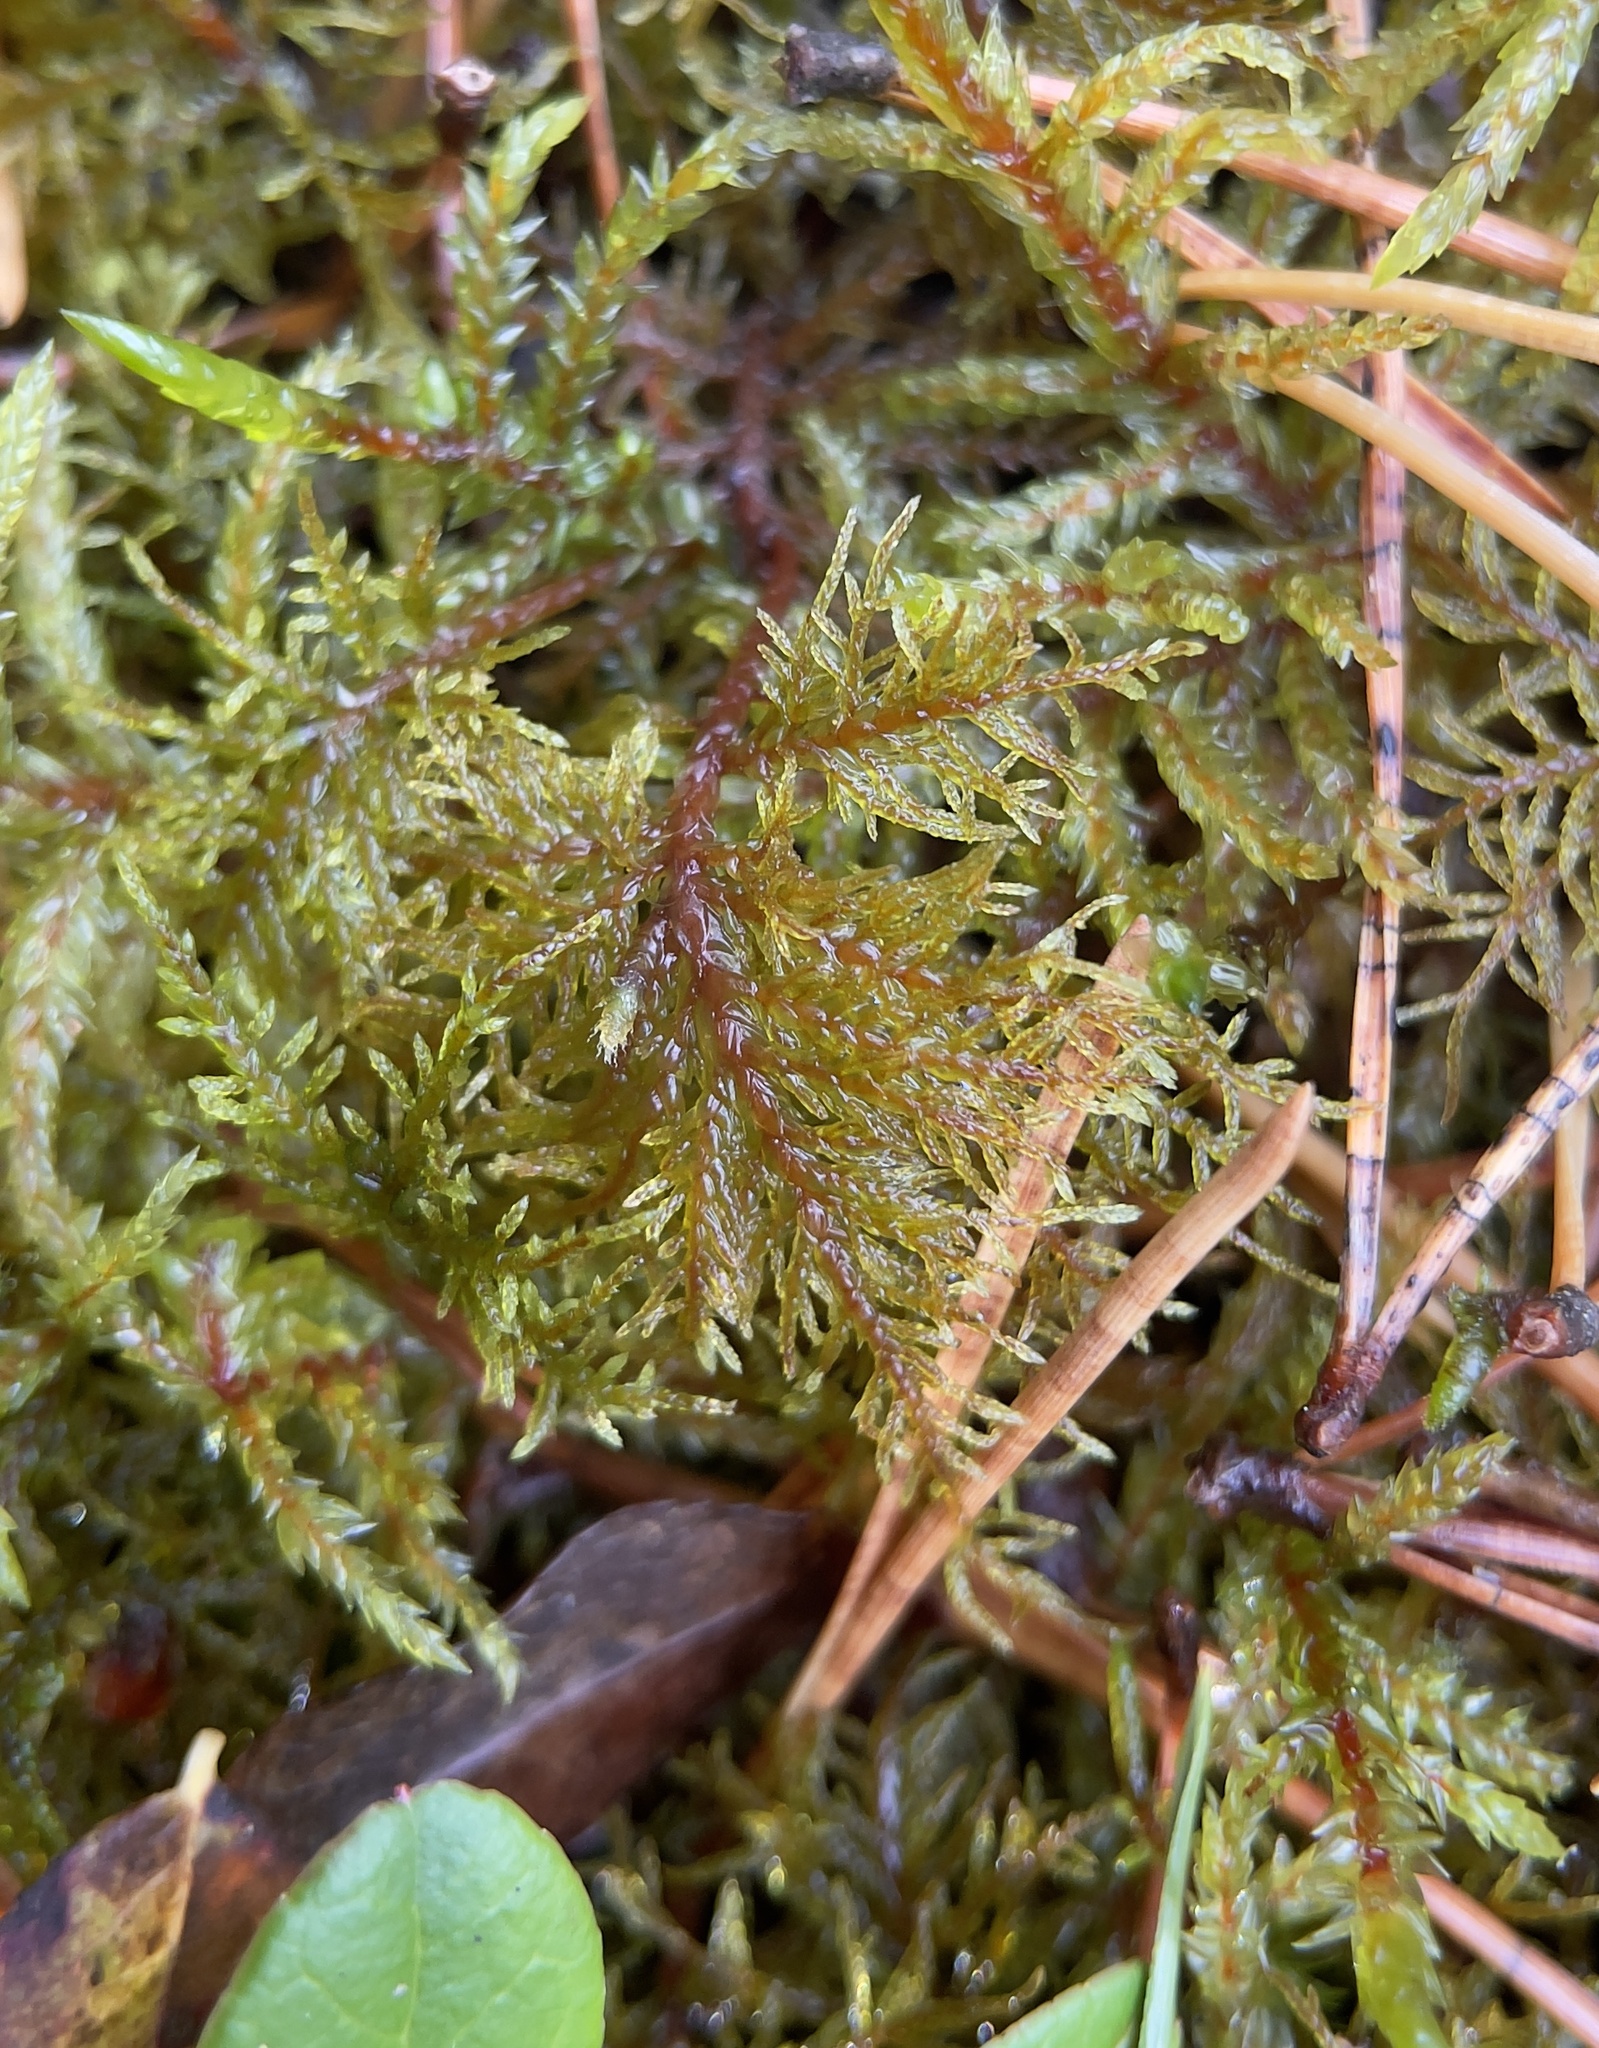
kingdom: Plantae
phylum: Bryophyta
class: Bryopsida
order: Hypnales
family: Hylocomiaceae
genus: Hylocomium
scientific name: Hylocomium splendens
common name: Stairstep moss
